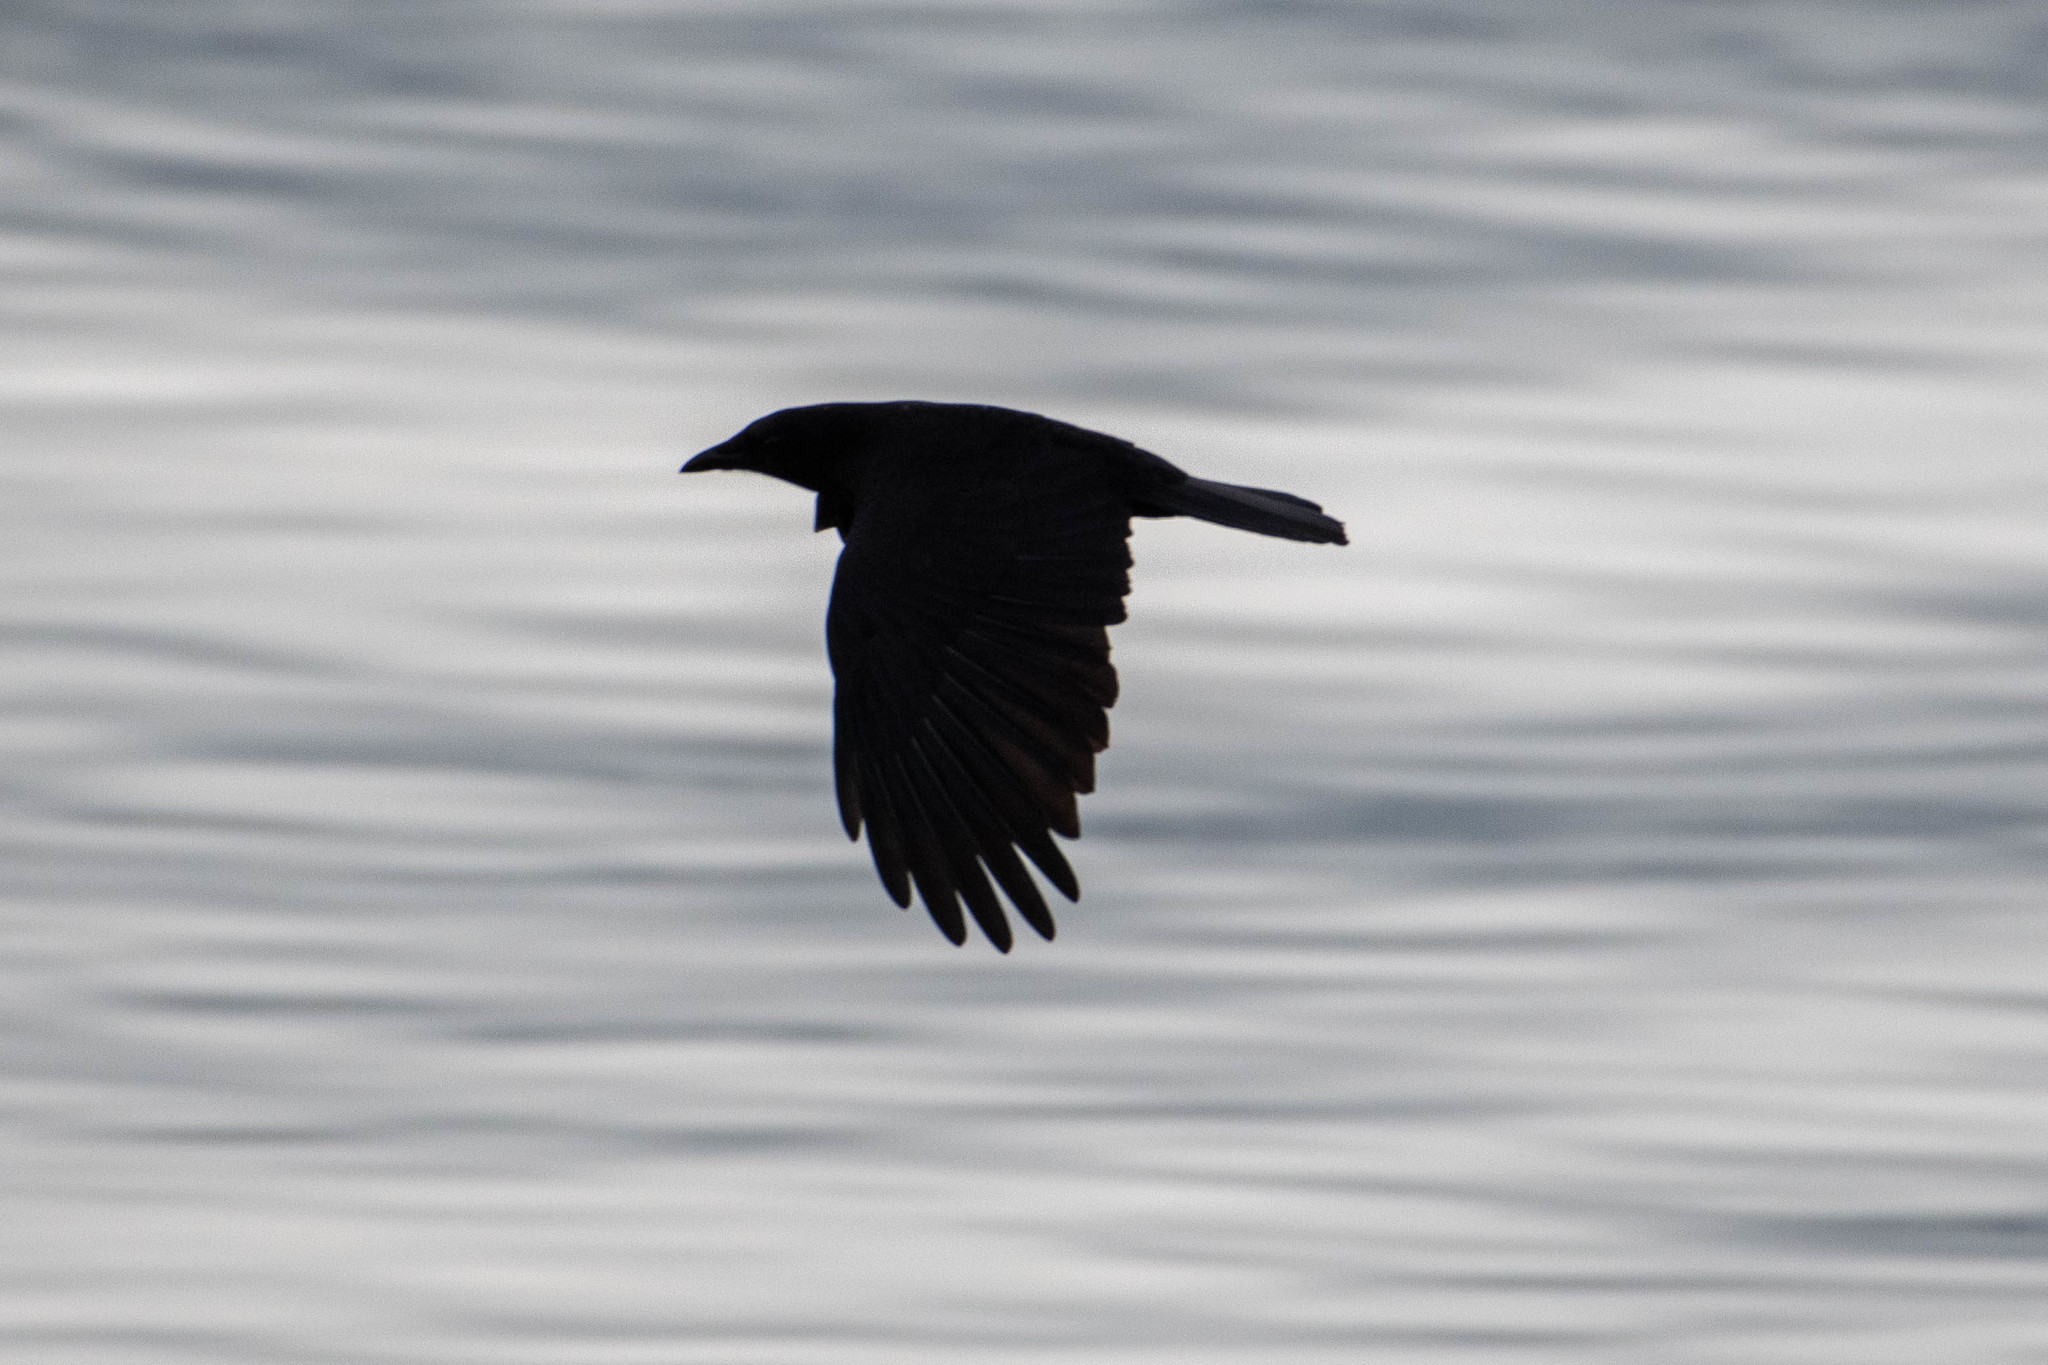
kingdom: Animalia
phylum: Chordata
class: Aves
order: Passeriformes
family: Corvidae
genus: Corvus
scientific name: Corvus brachyrhynchos
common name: American crow
